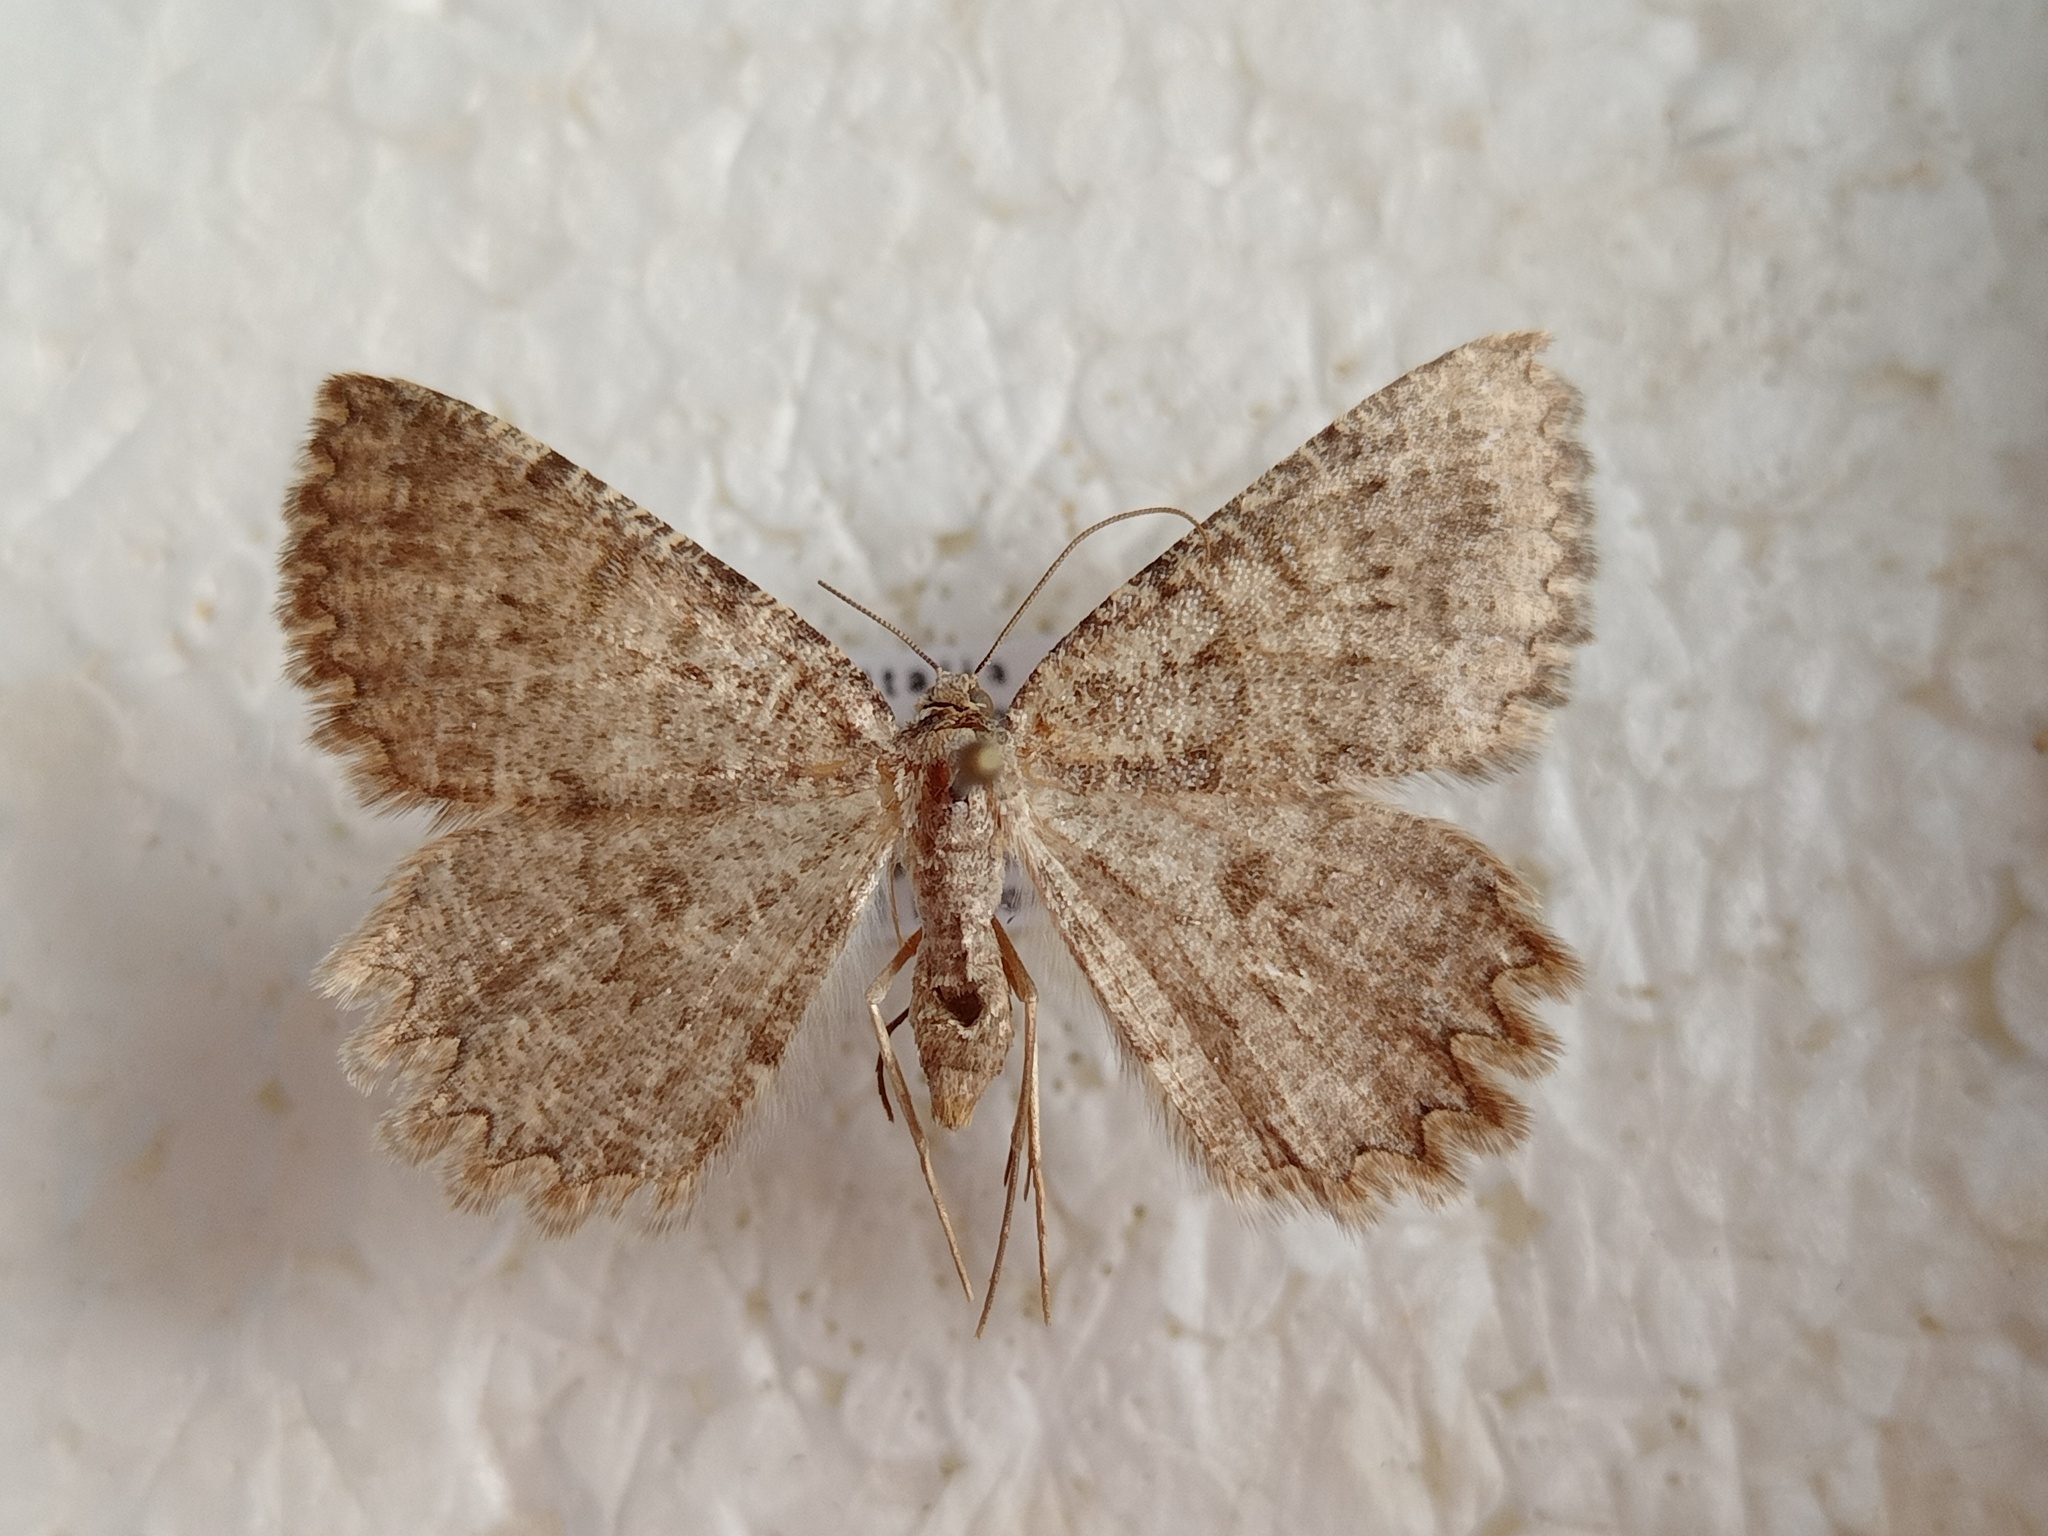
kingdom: Animalia
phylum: Arthropoda
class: Insecta
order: Lepidoptera
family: Geometridae
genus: Charissa
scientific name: Charissa obscurata
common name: Annulet
